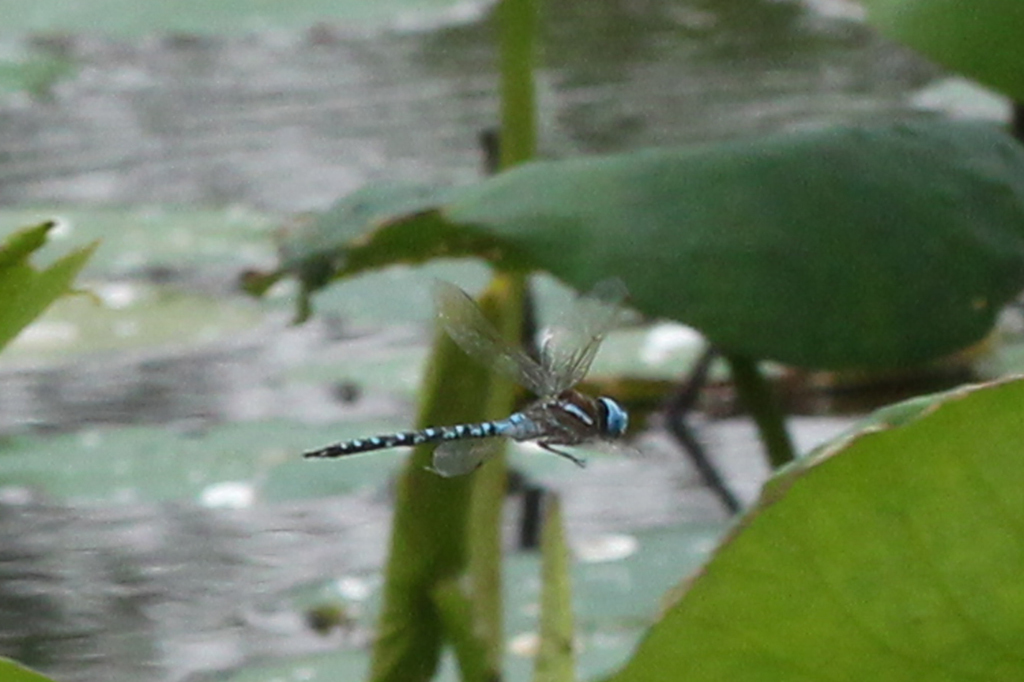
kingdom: Animalia
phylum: Arthropoda
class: Insecta
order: Odonata
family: Aeshnidae
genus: Rhionaeschna
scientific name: Rhionaeschna mutata
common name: Spatterdock darner
